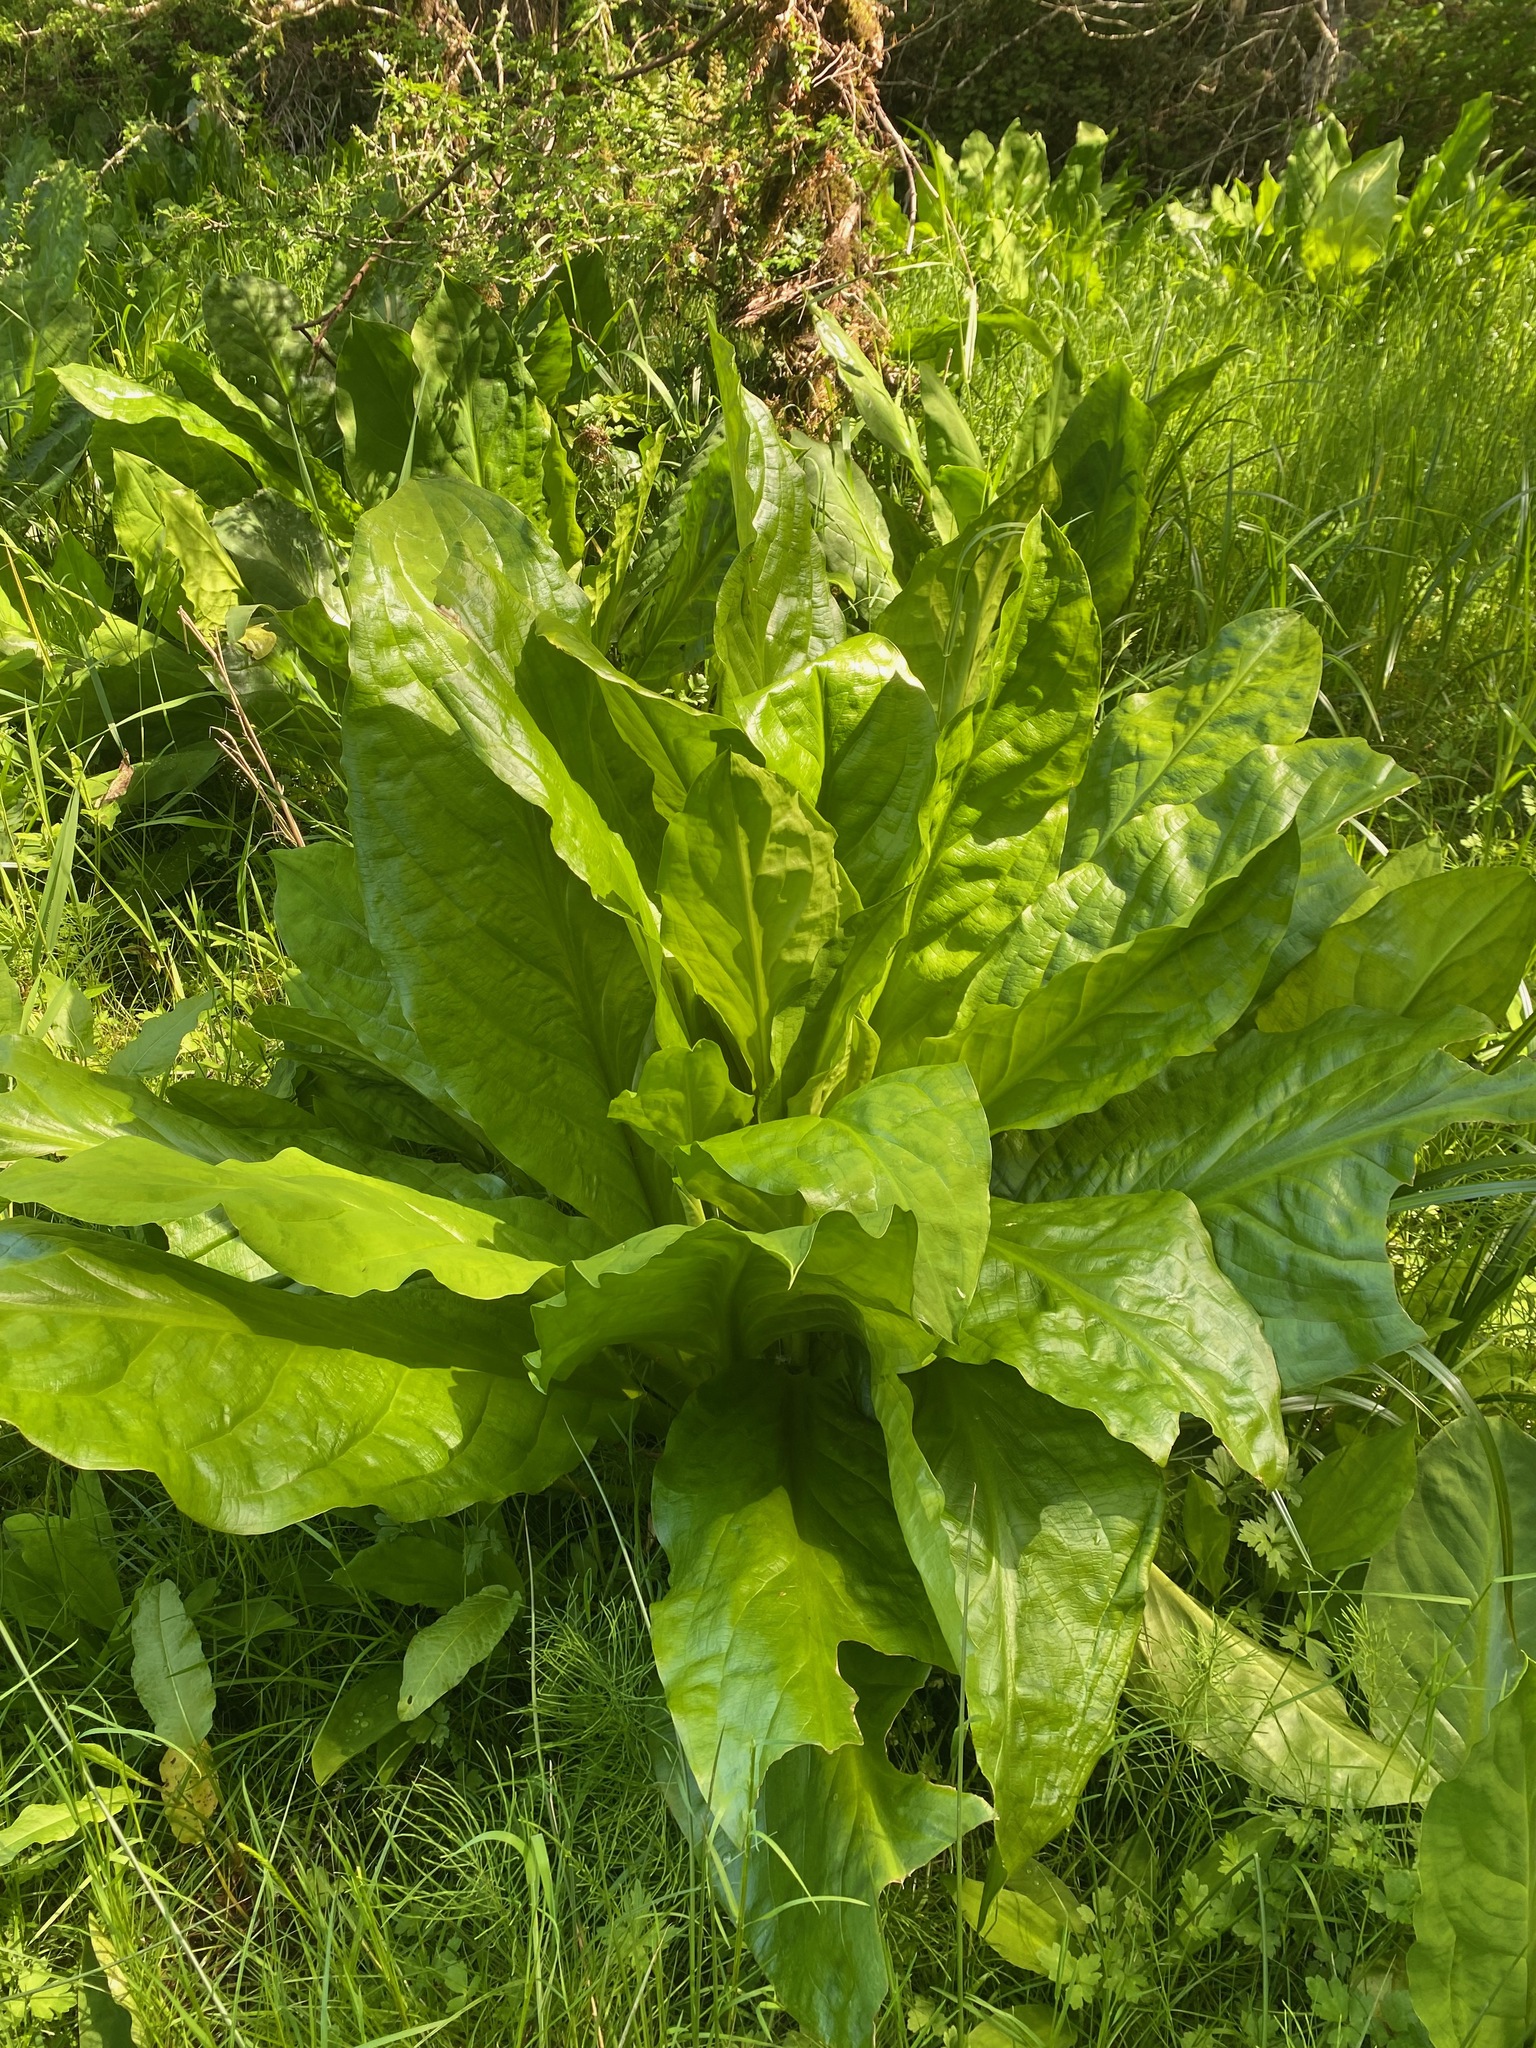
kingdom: Plantae
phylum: Tracheophyta
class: Liliopsida
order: Alismatales
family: Araceae
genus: Lysichiton
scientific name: Lysichiton americanus
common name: American skunk cabbage
